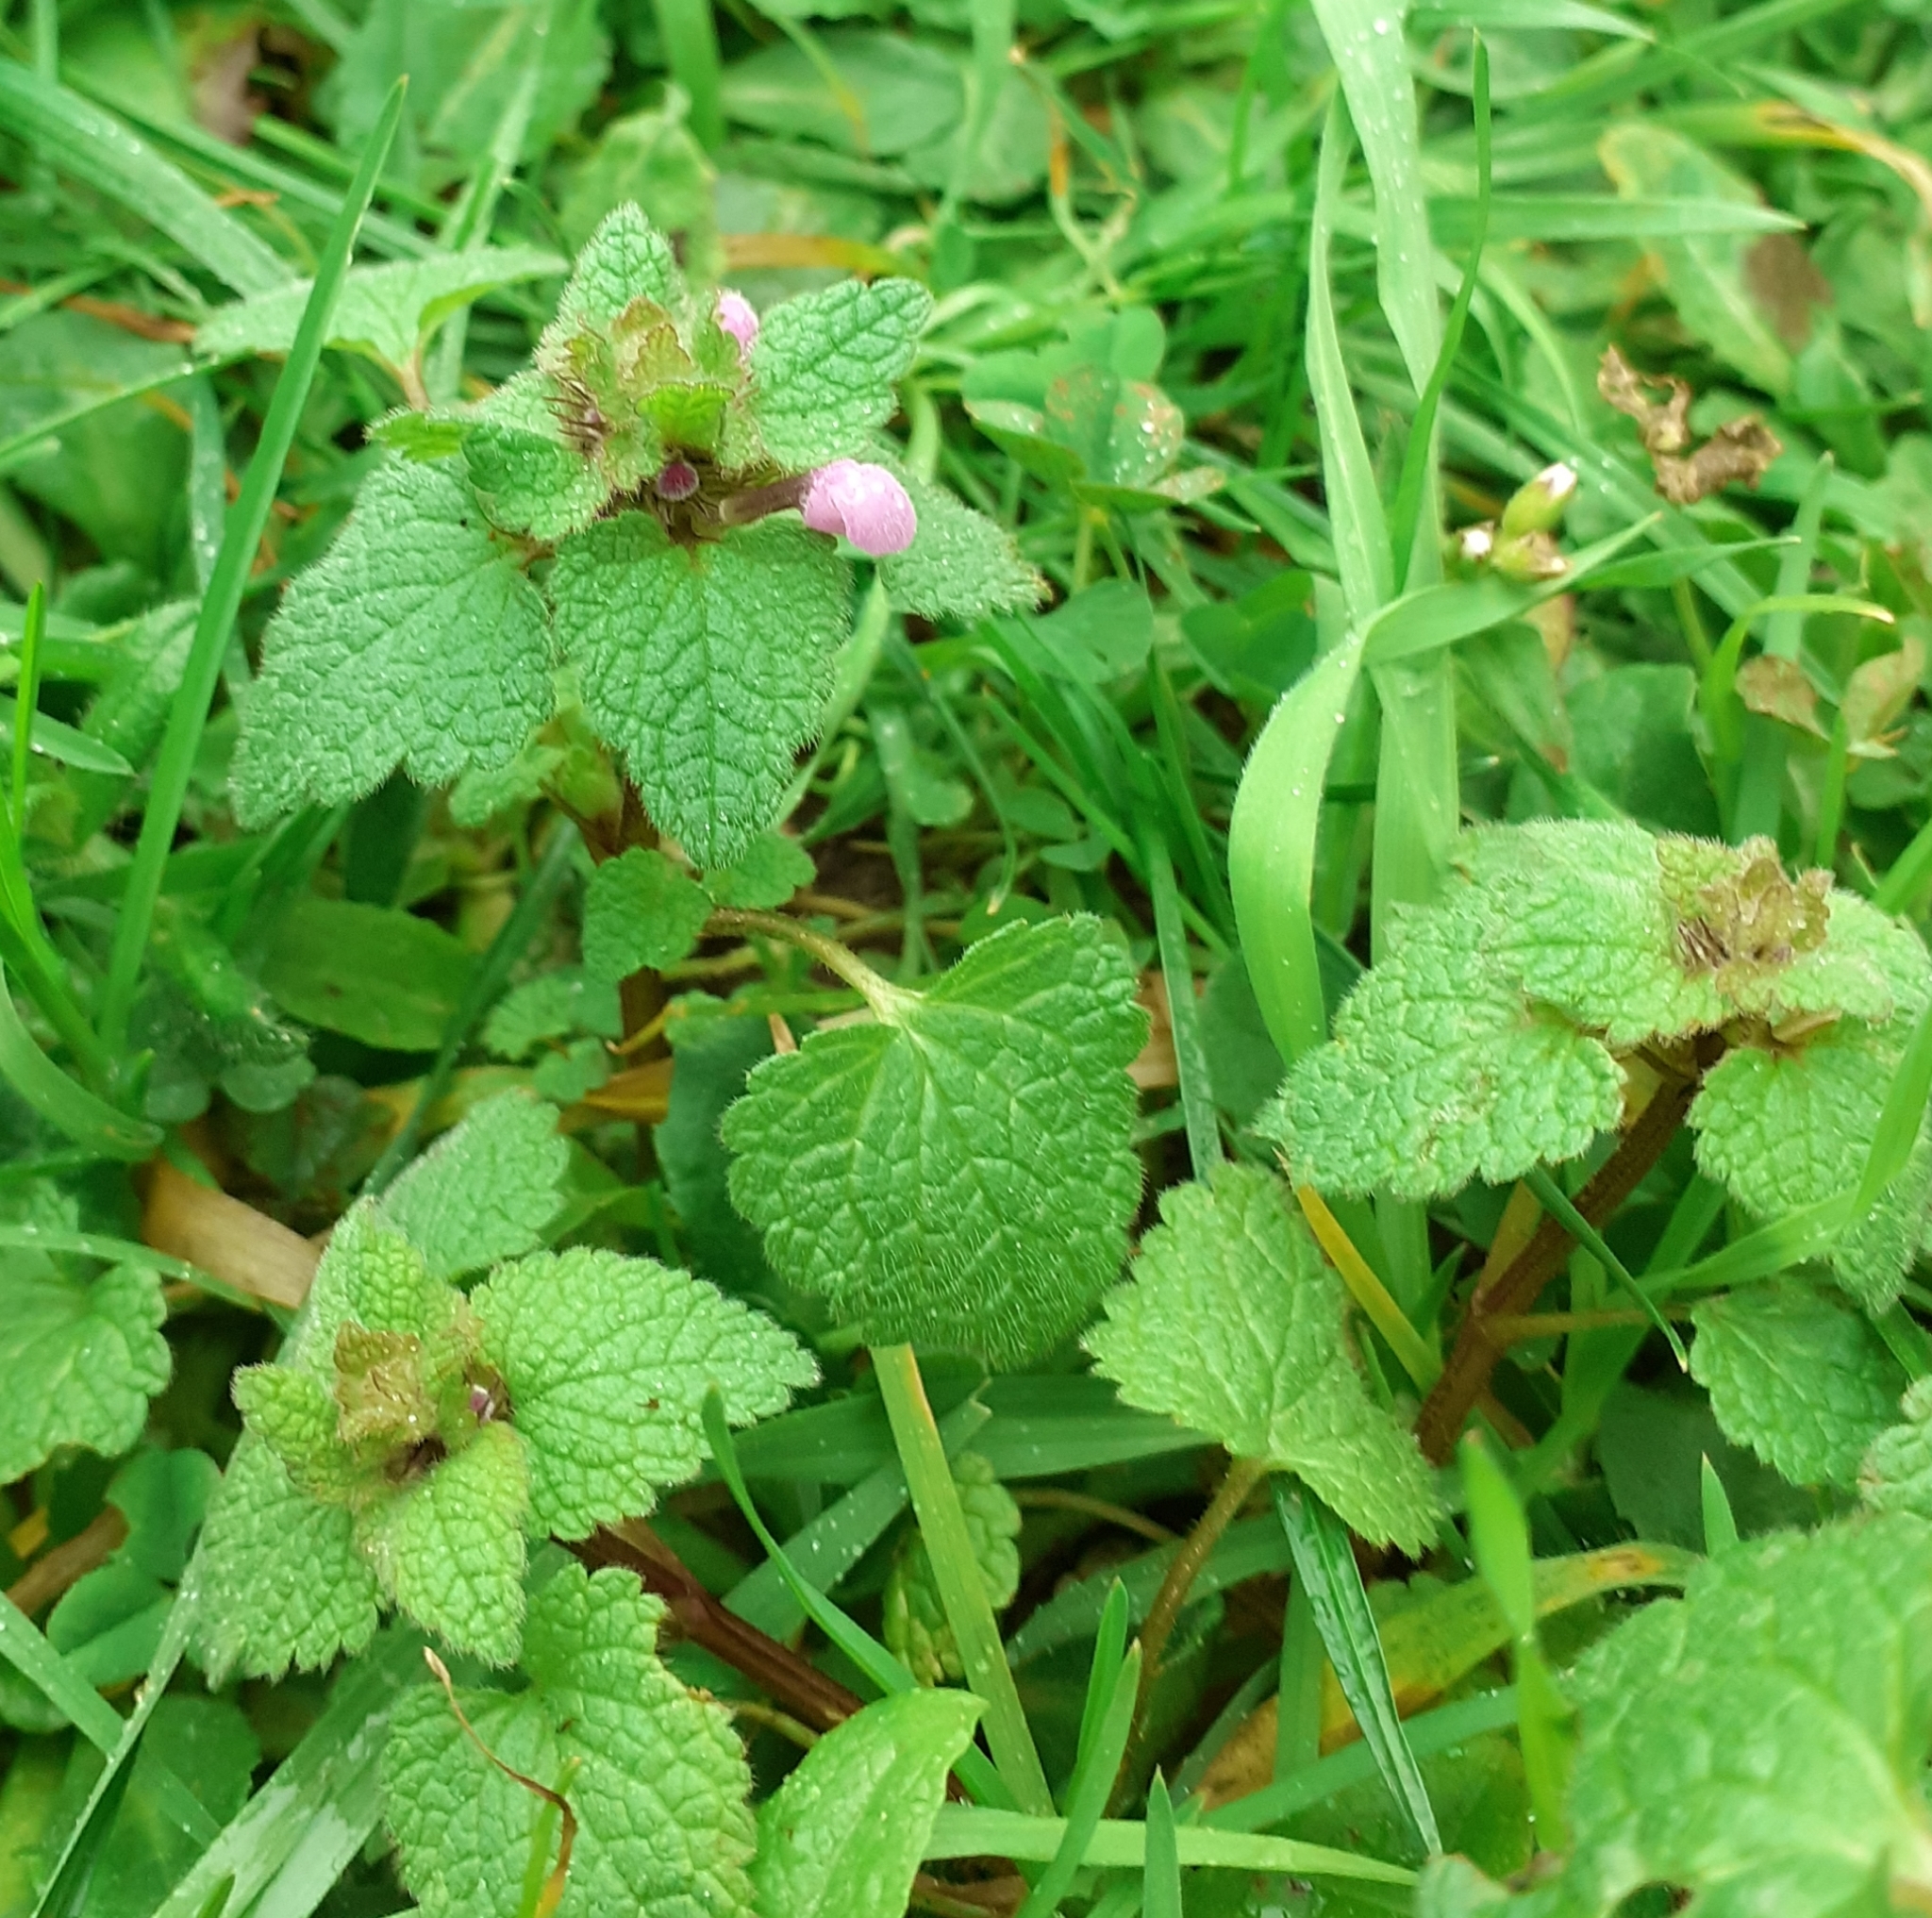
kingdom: Plantae
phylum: Tracheophyta
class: Magnoliopsida
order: Lamiales
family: Lamiaceae
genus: Lamium
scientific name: Lamium purpureum
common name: Red dead-nettle
